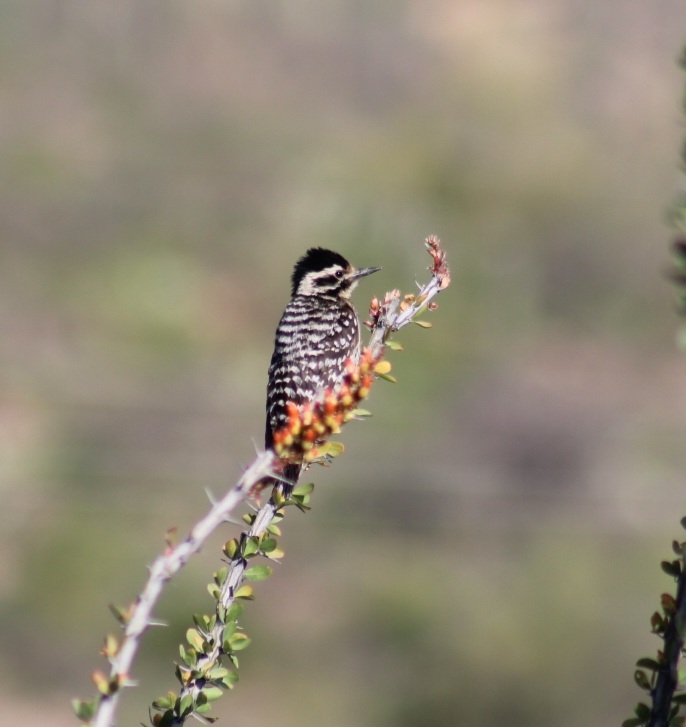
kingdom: Animalia
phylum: Chordata
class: Aves
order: Piciformes
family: Picidae
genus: Dryobates
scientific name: Dryobates scalaris
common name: Ladder-backed woodpecker
